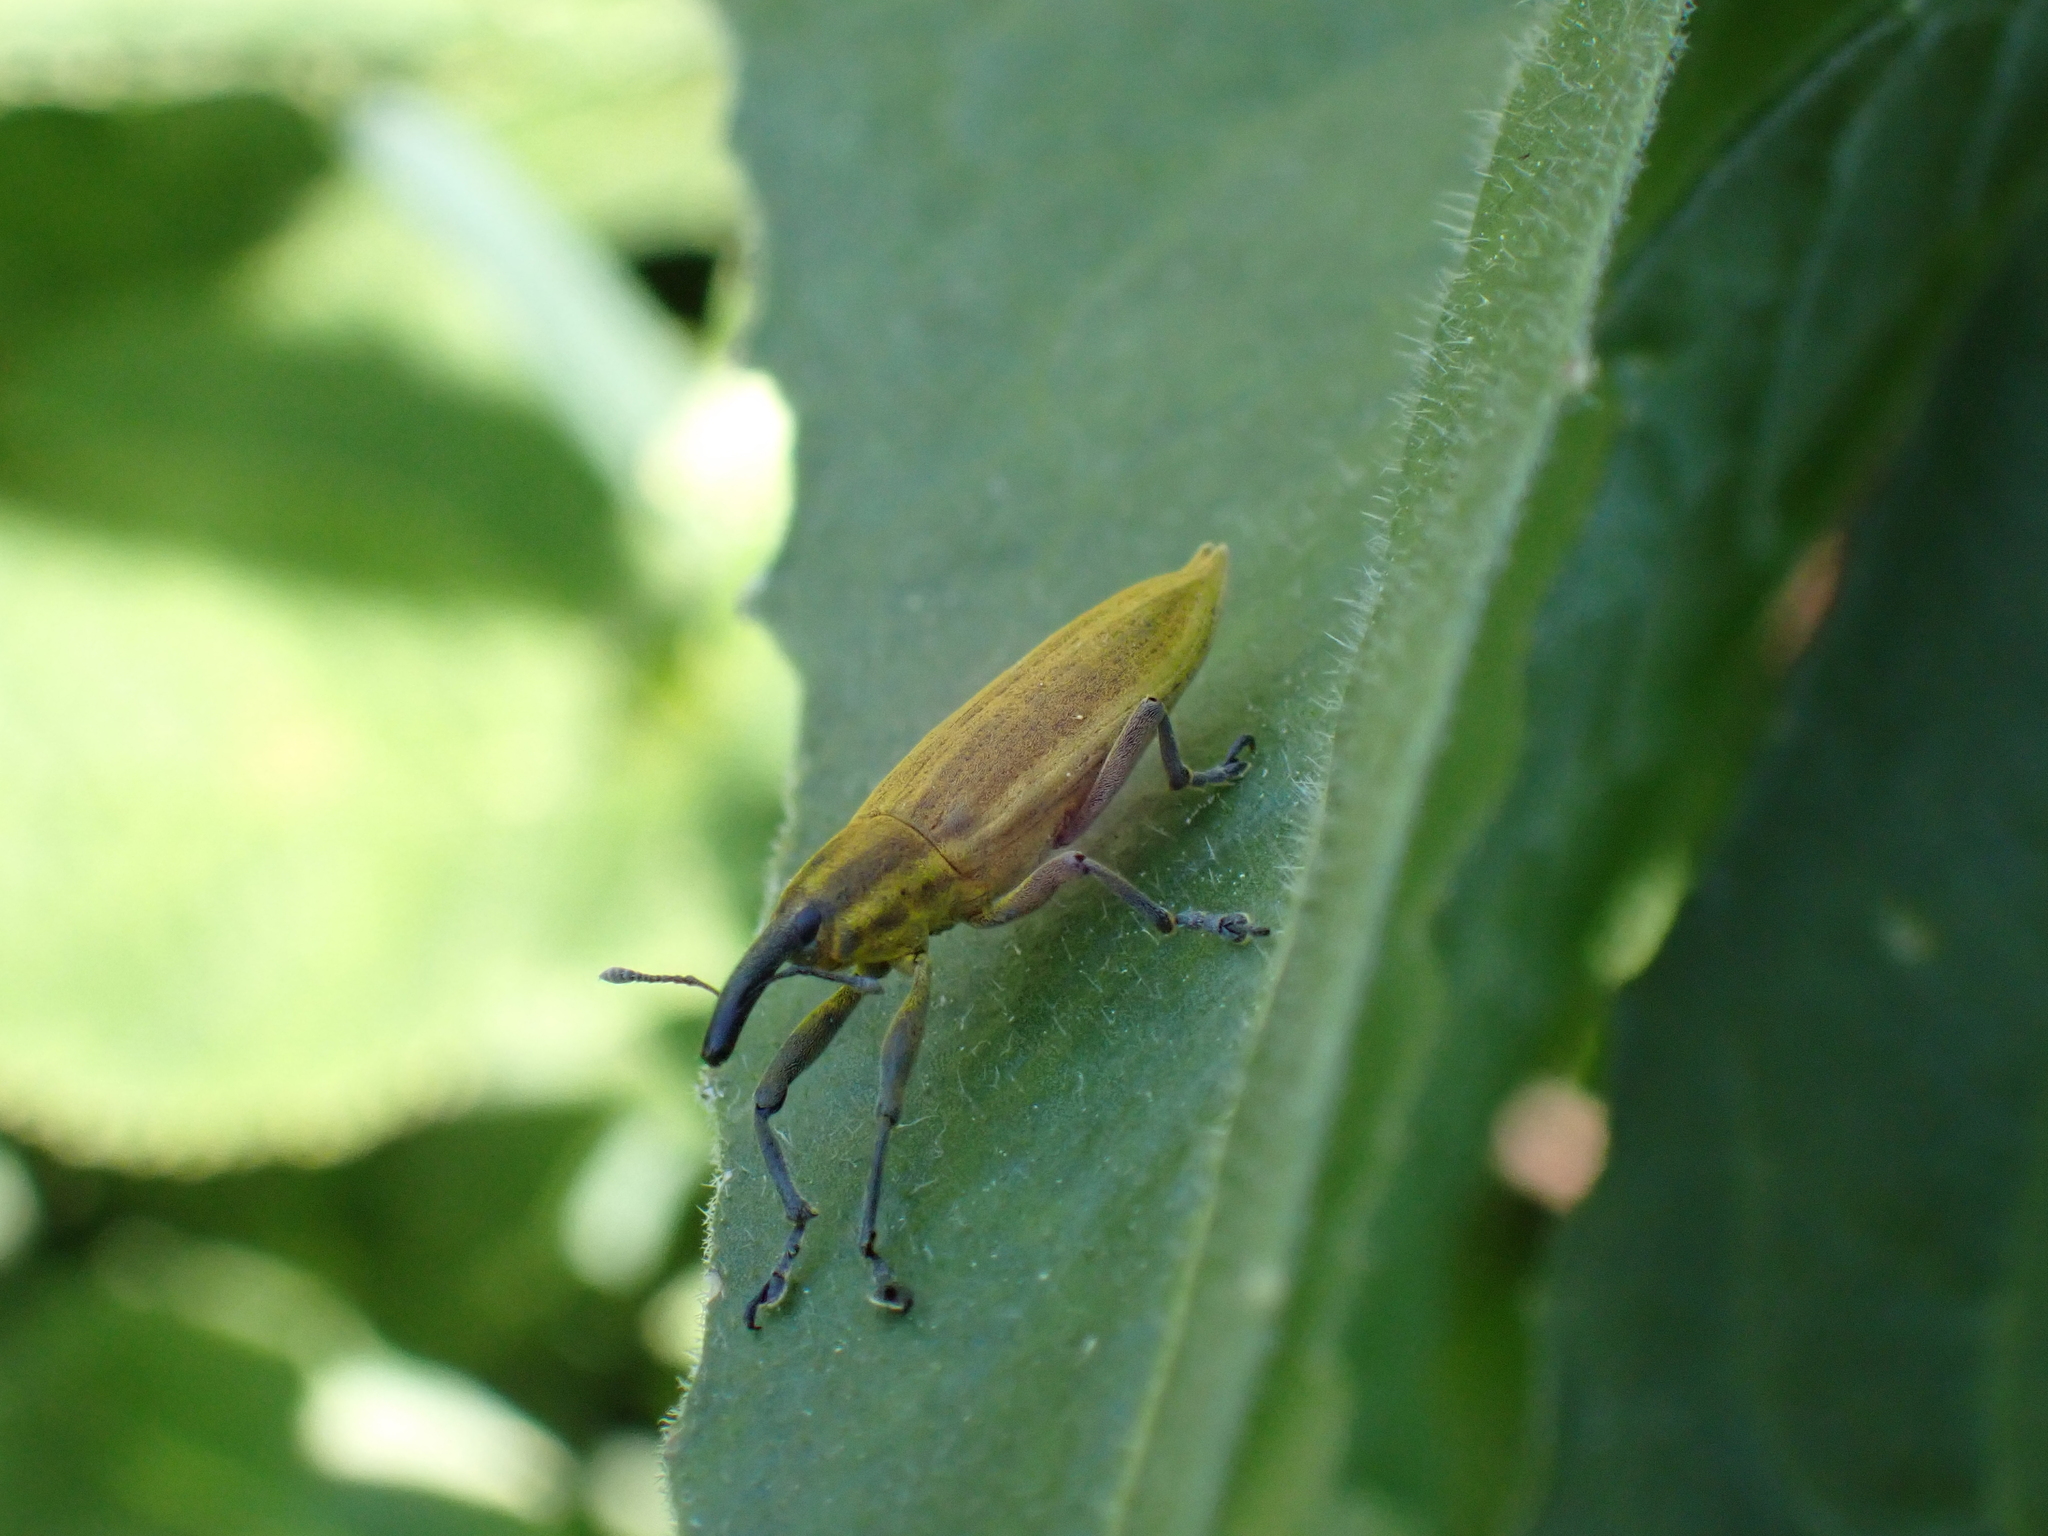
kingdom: Animalia
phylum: Arthropoda
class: Insecta
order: Coleoptera
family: Curculionidae
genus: Lixus
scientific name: Lixus iridis
